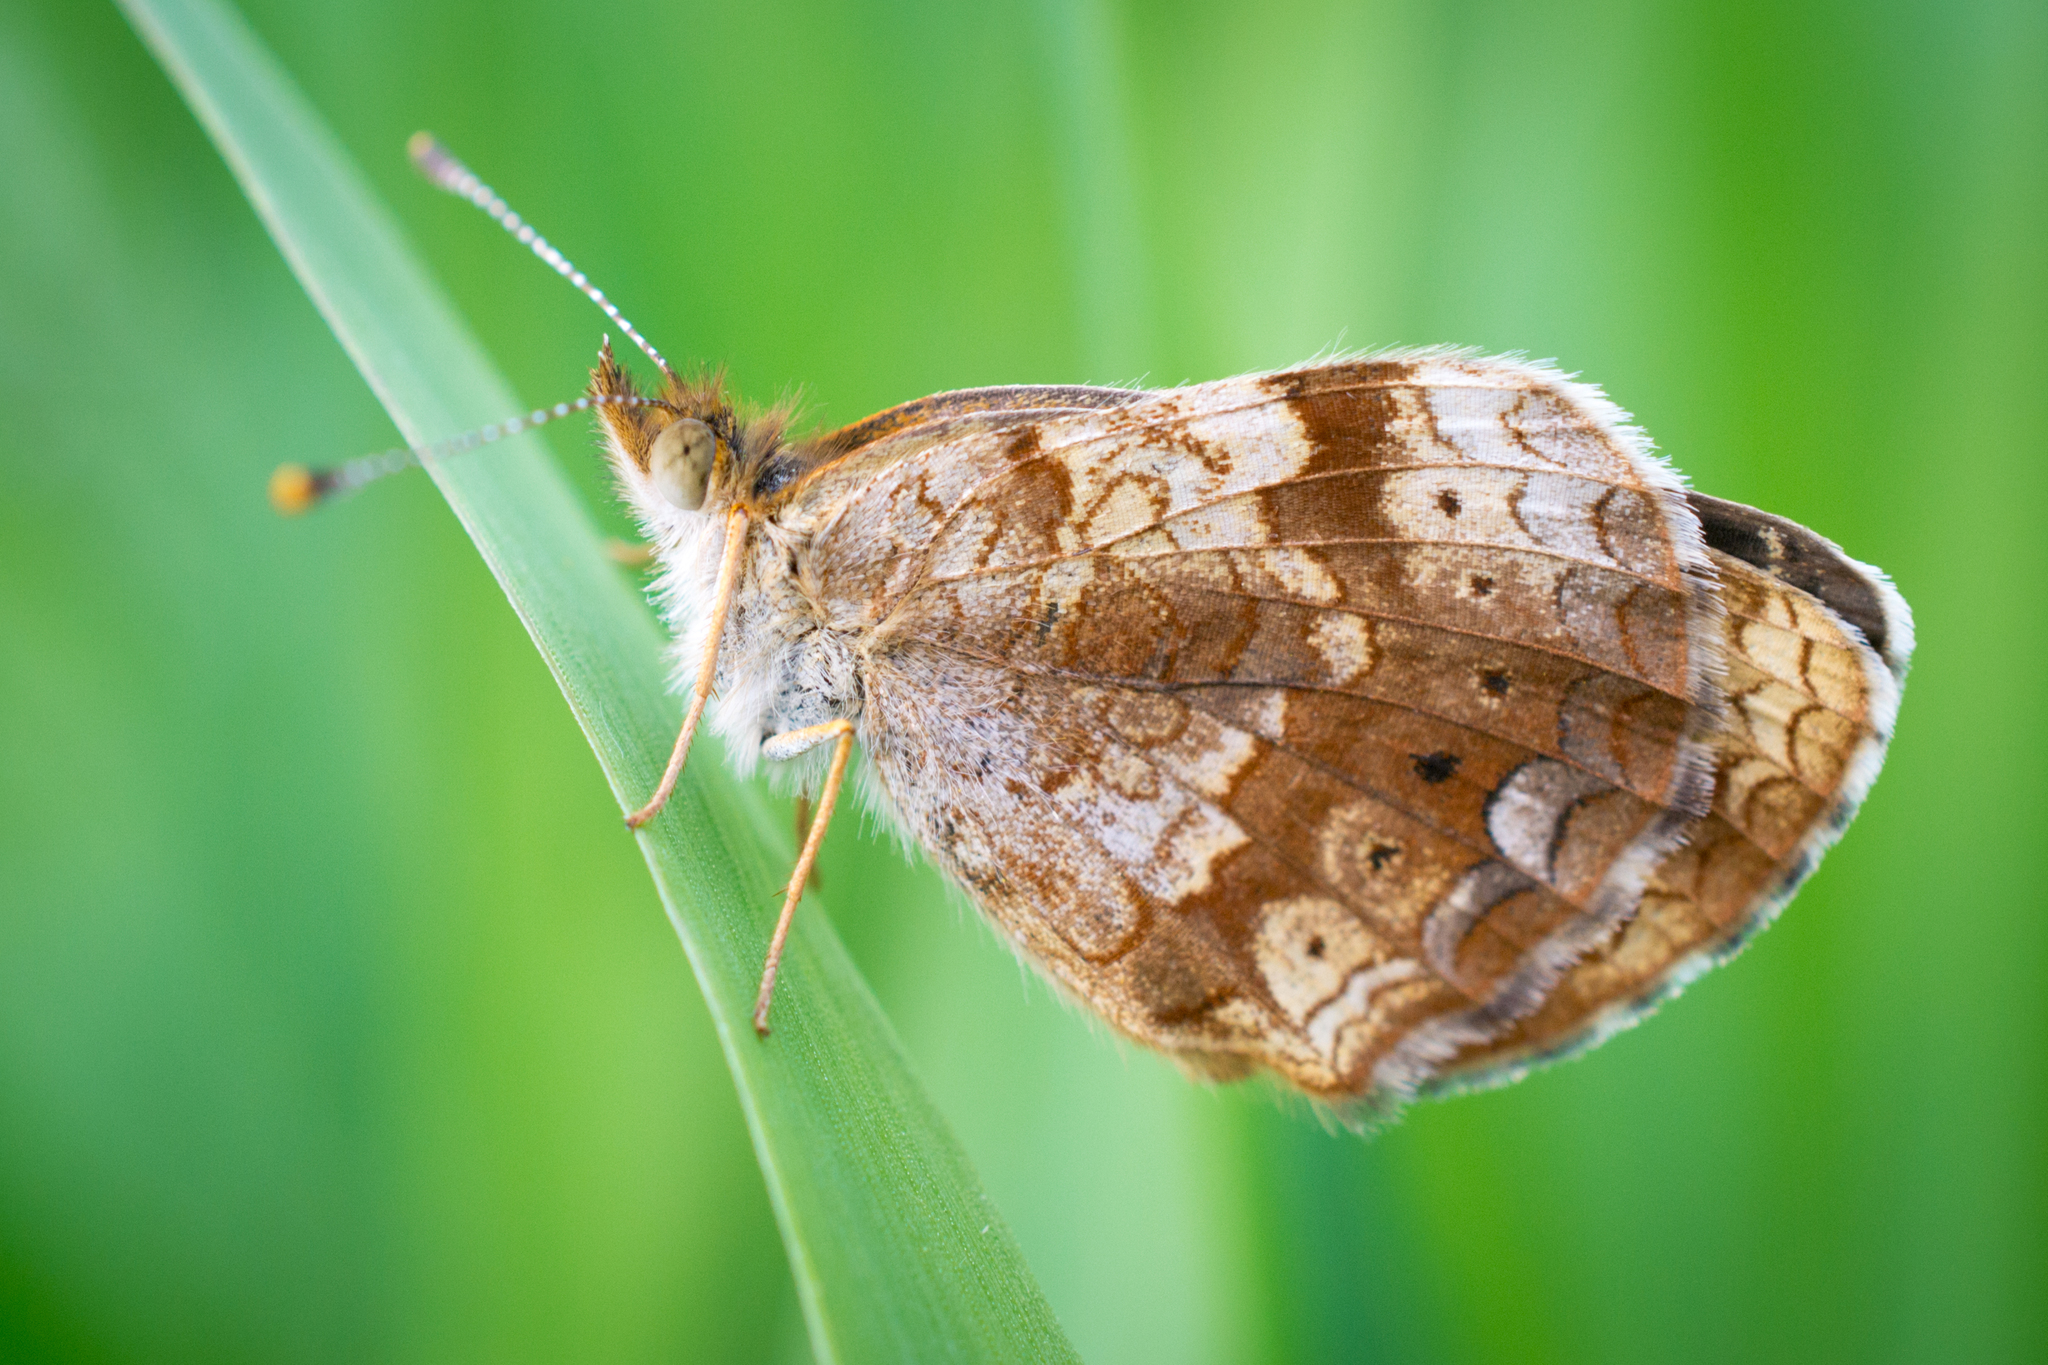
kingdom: Animalia
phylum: Arthropoda
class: Insecta
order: Lepidoptera
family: Nymphalidae
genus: Phyciodes
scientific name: Phyciodes tharos
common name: Pearl crescent
